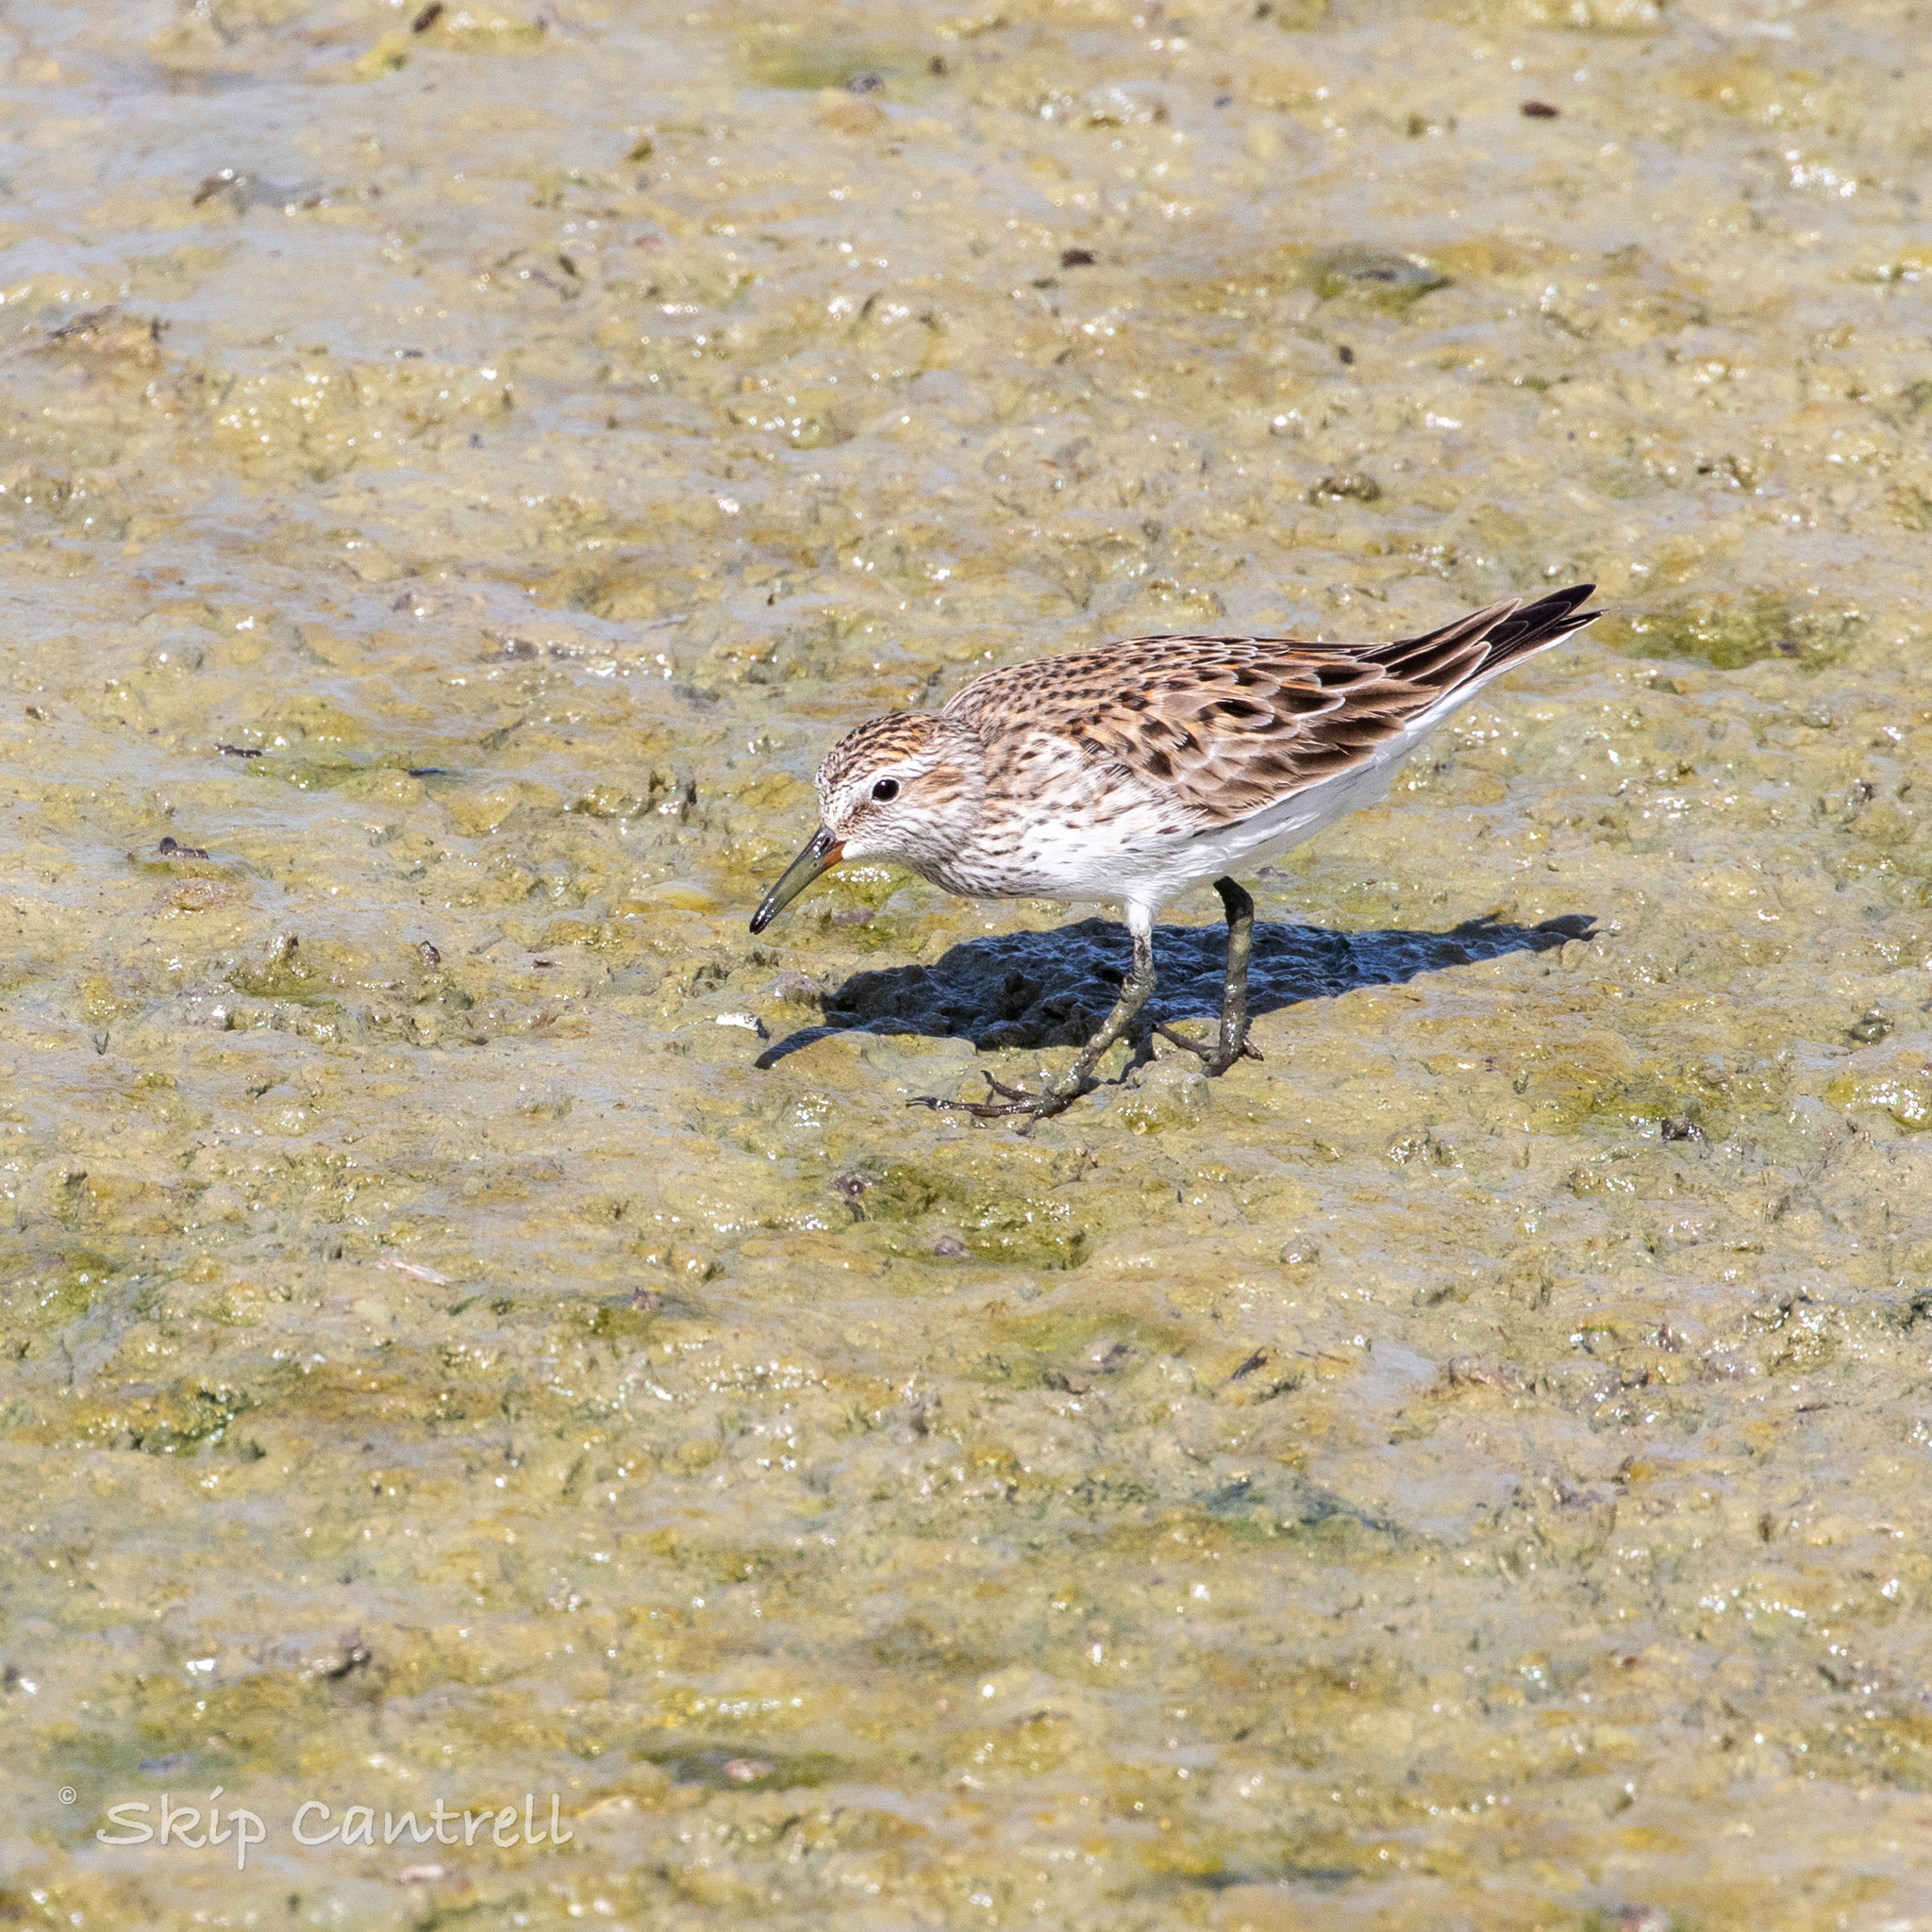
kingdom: Animalia
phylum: Chordata
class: Aves
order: Charadriiformes
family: Scolopacidae
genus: Calidris
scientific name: Calidris fuscicollis
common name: White-rumped sandpiper
